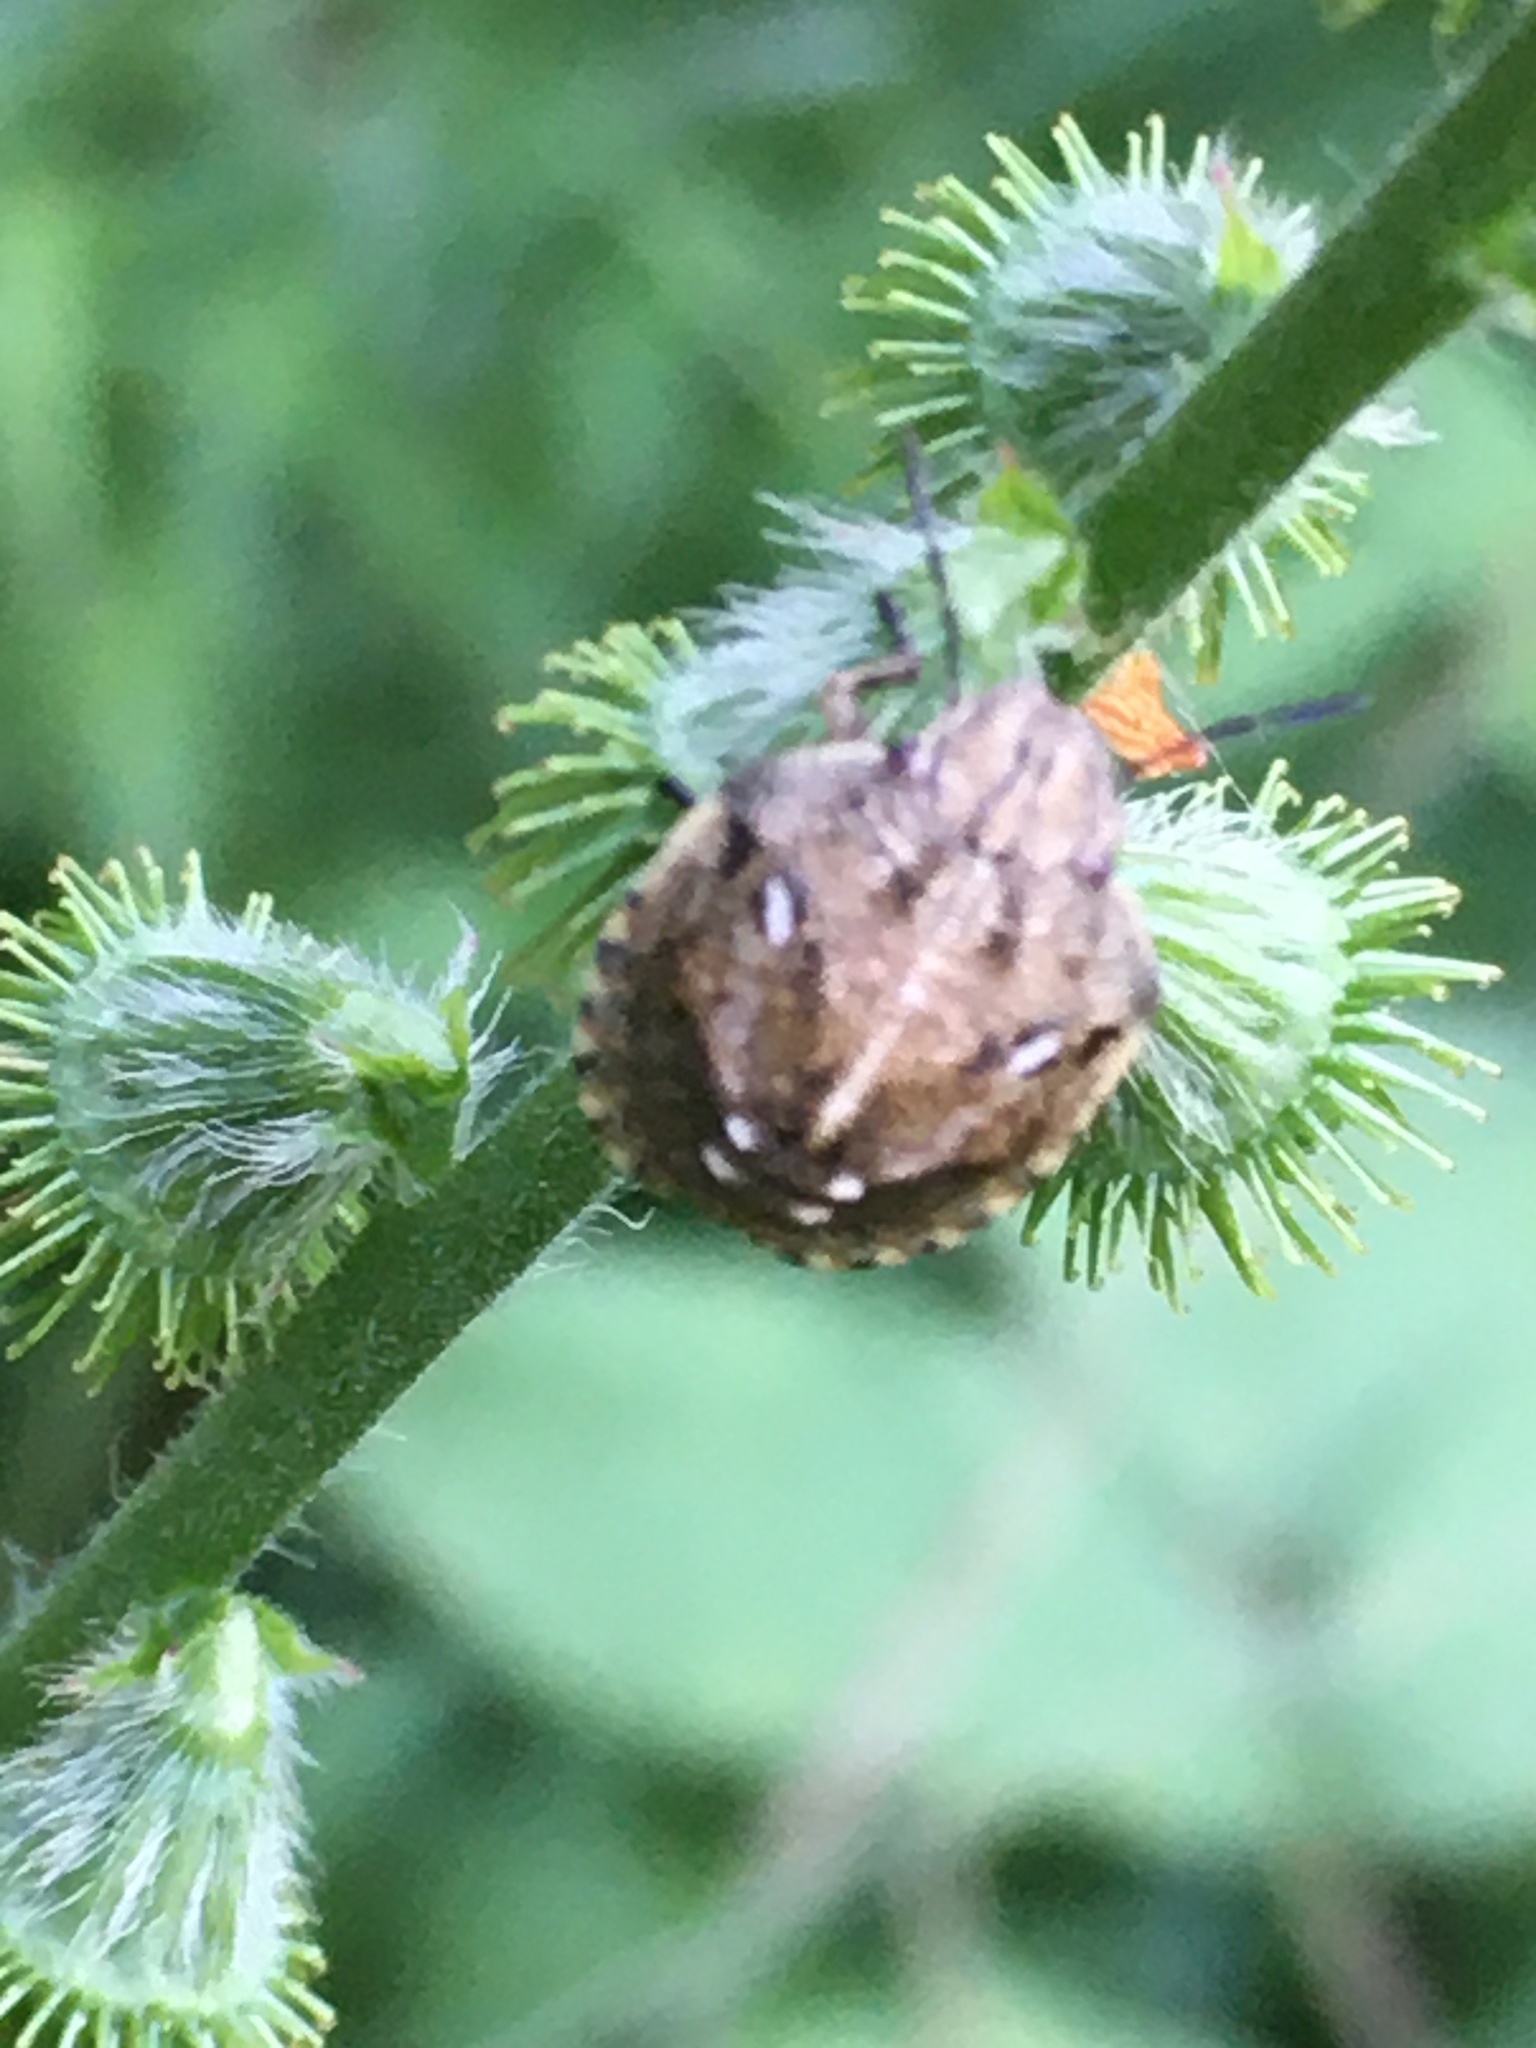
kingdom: Animalia
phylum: Arthropoda
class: Insecta
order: Hemiptera
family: Scutelleridae
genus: Eurygaster
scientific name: Eurygaster testudinaria
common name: Tortoise bug
